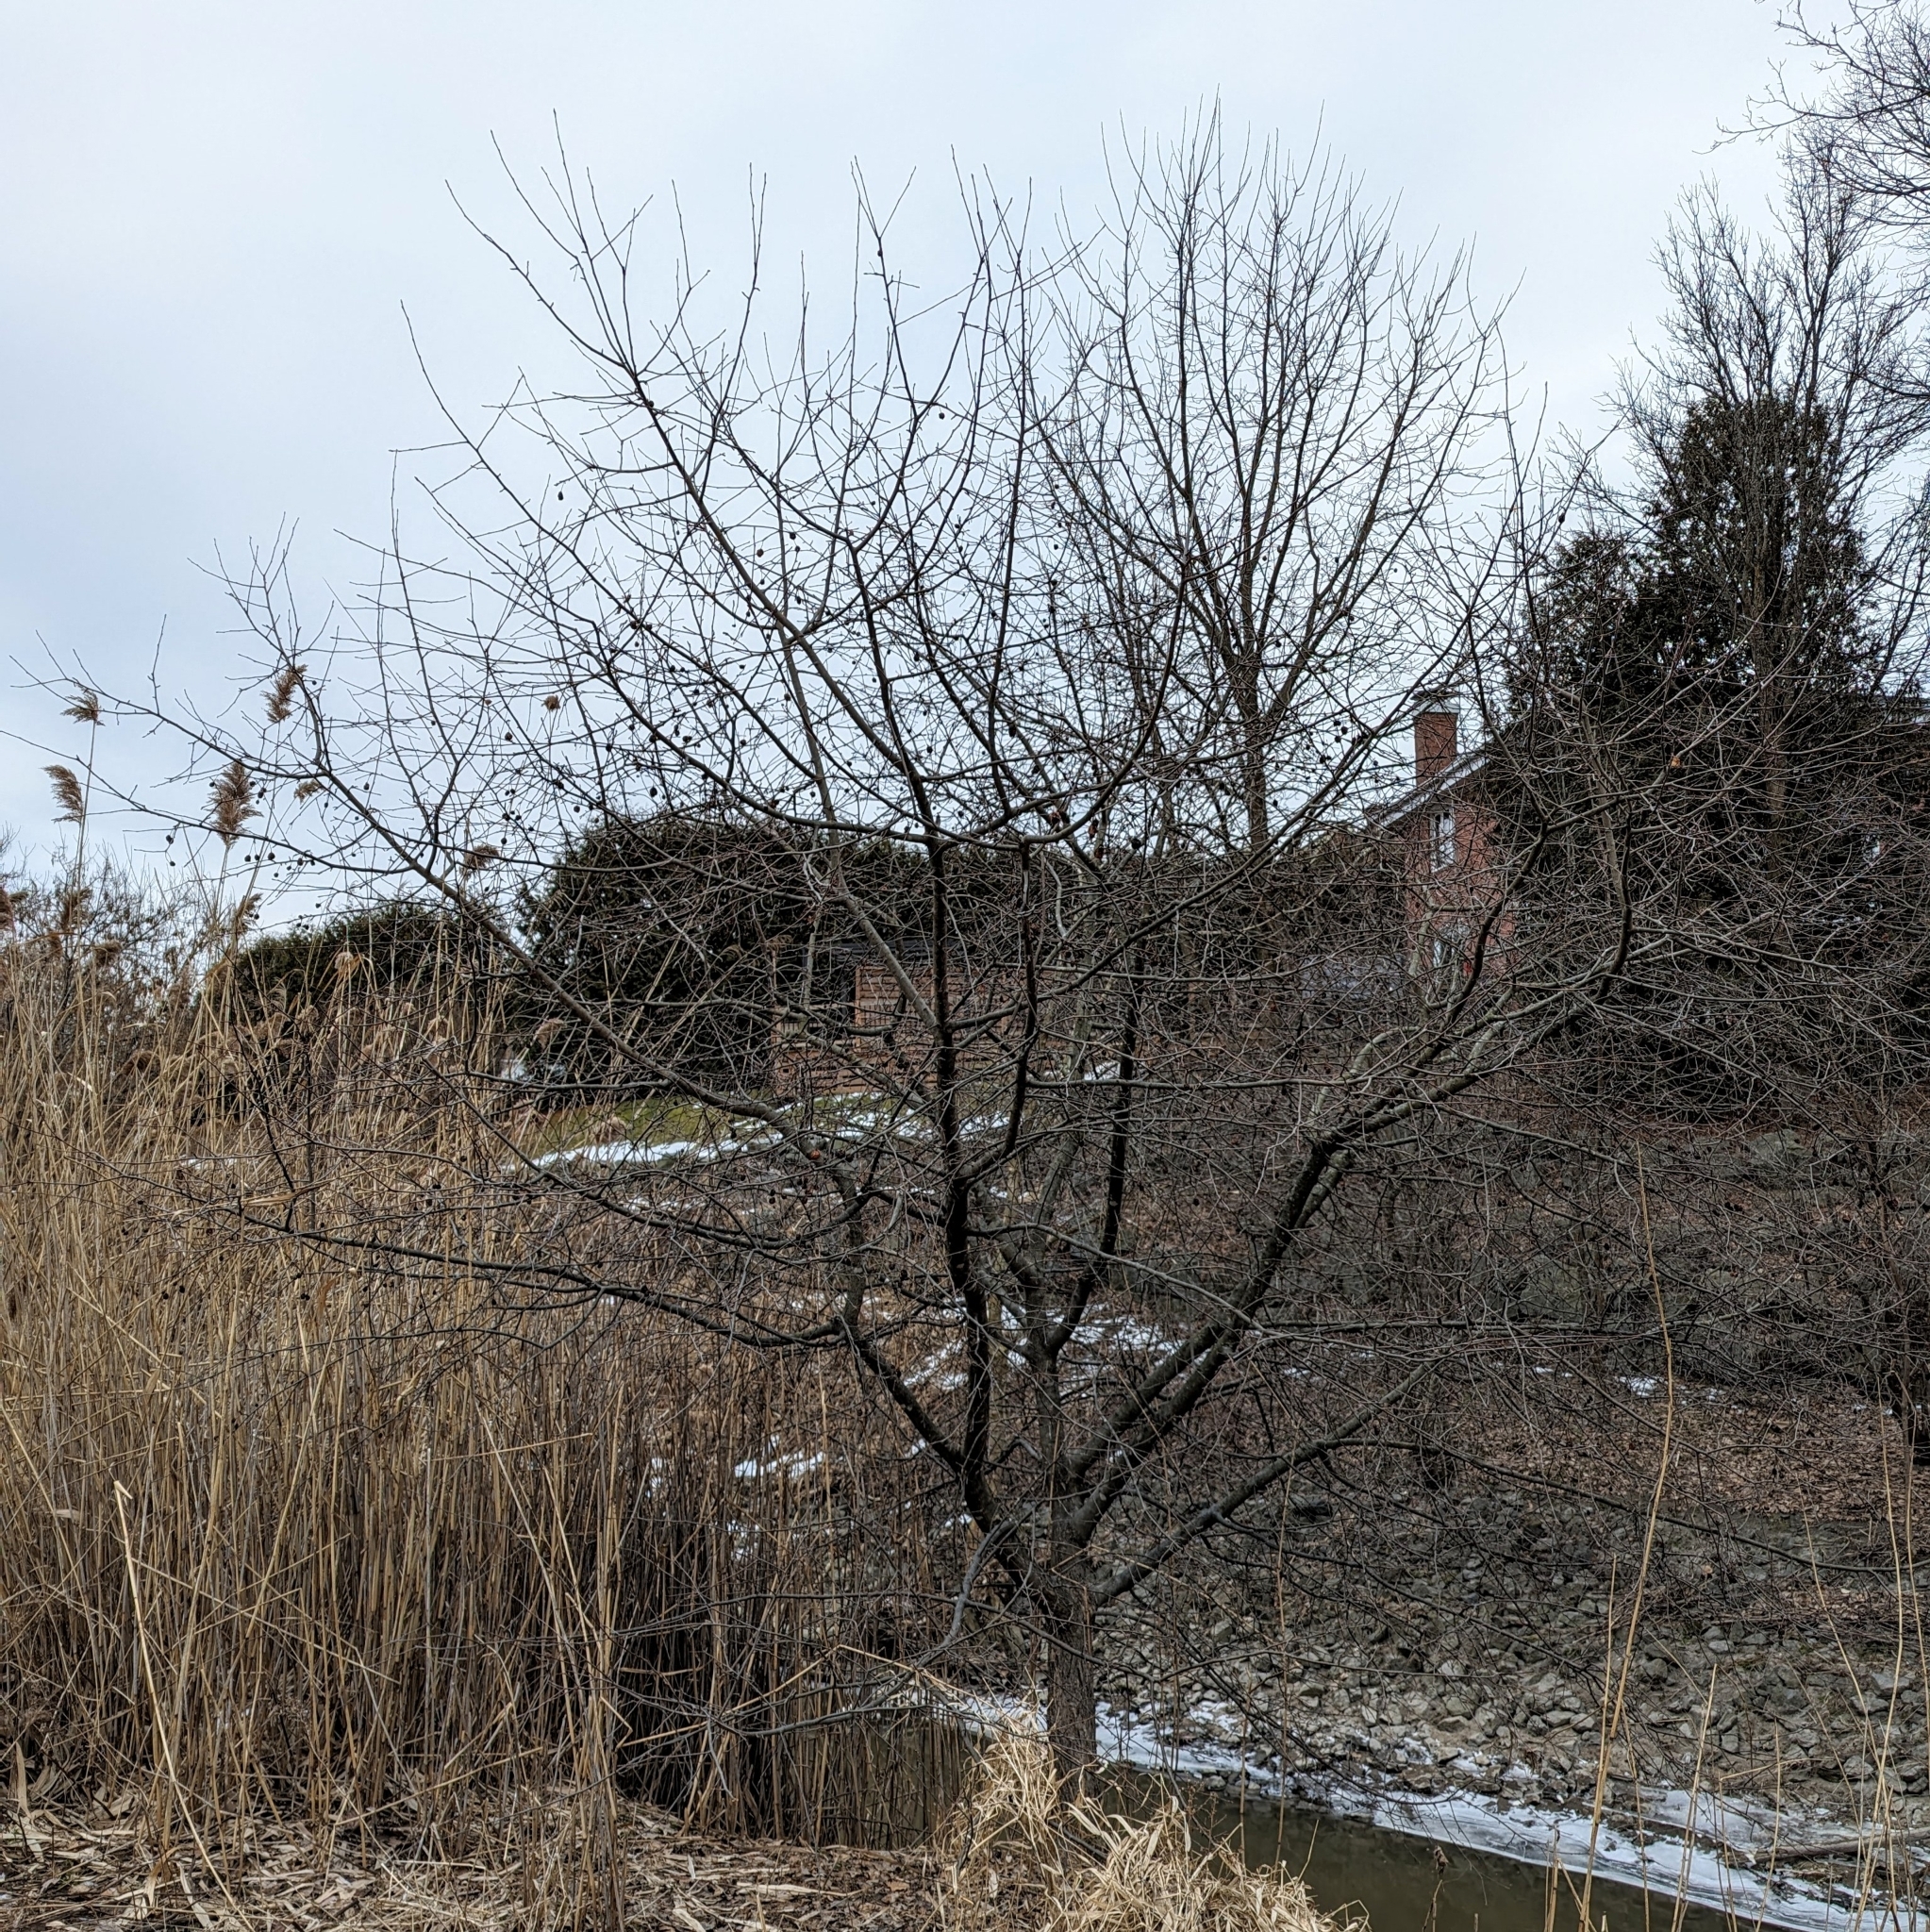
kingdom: Plantae
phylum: Tracheophyta
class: Magnoliopsida
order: Rosales
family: Rosaceae
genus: Malus
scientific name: Malus
